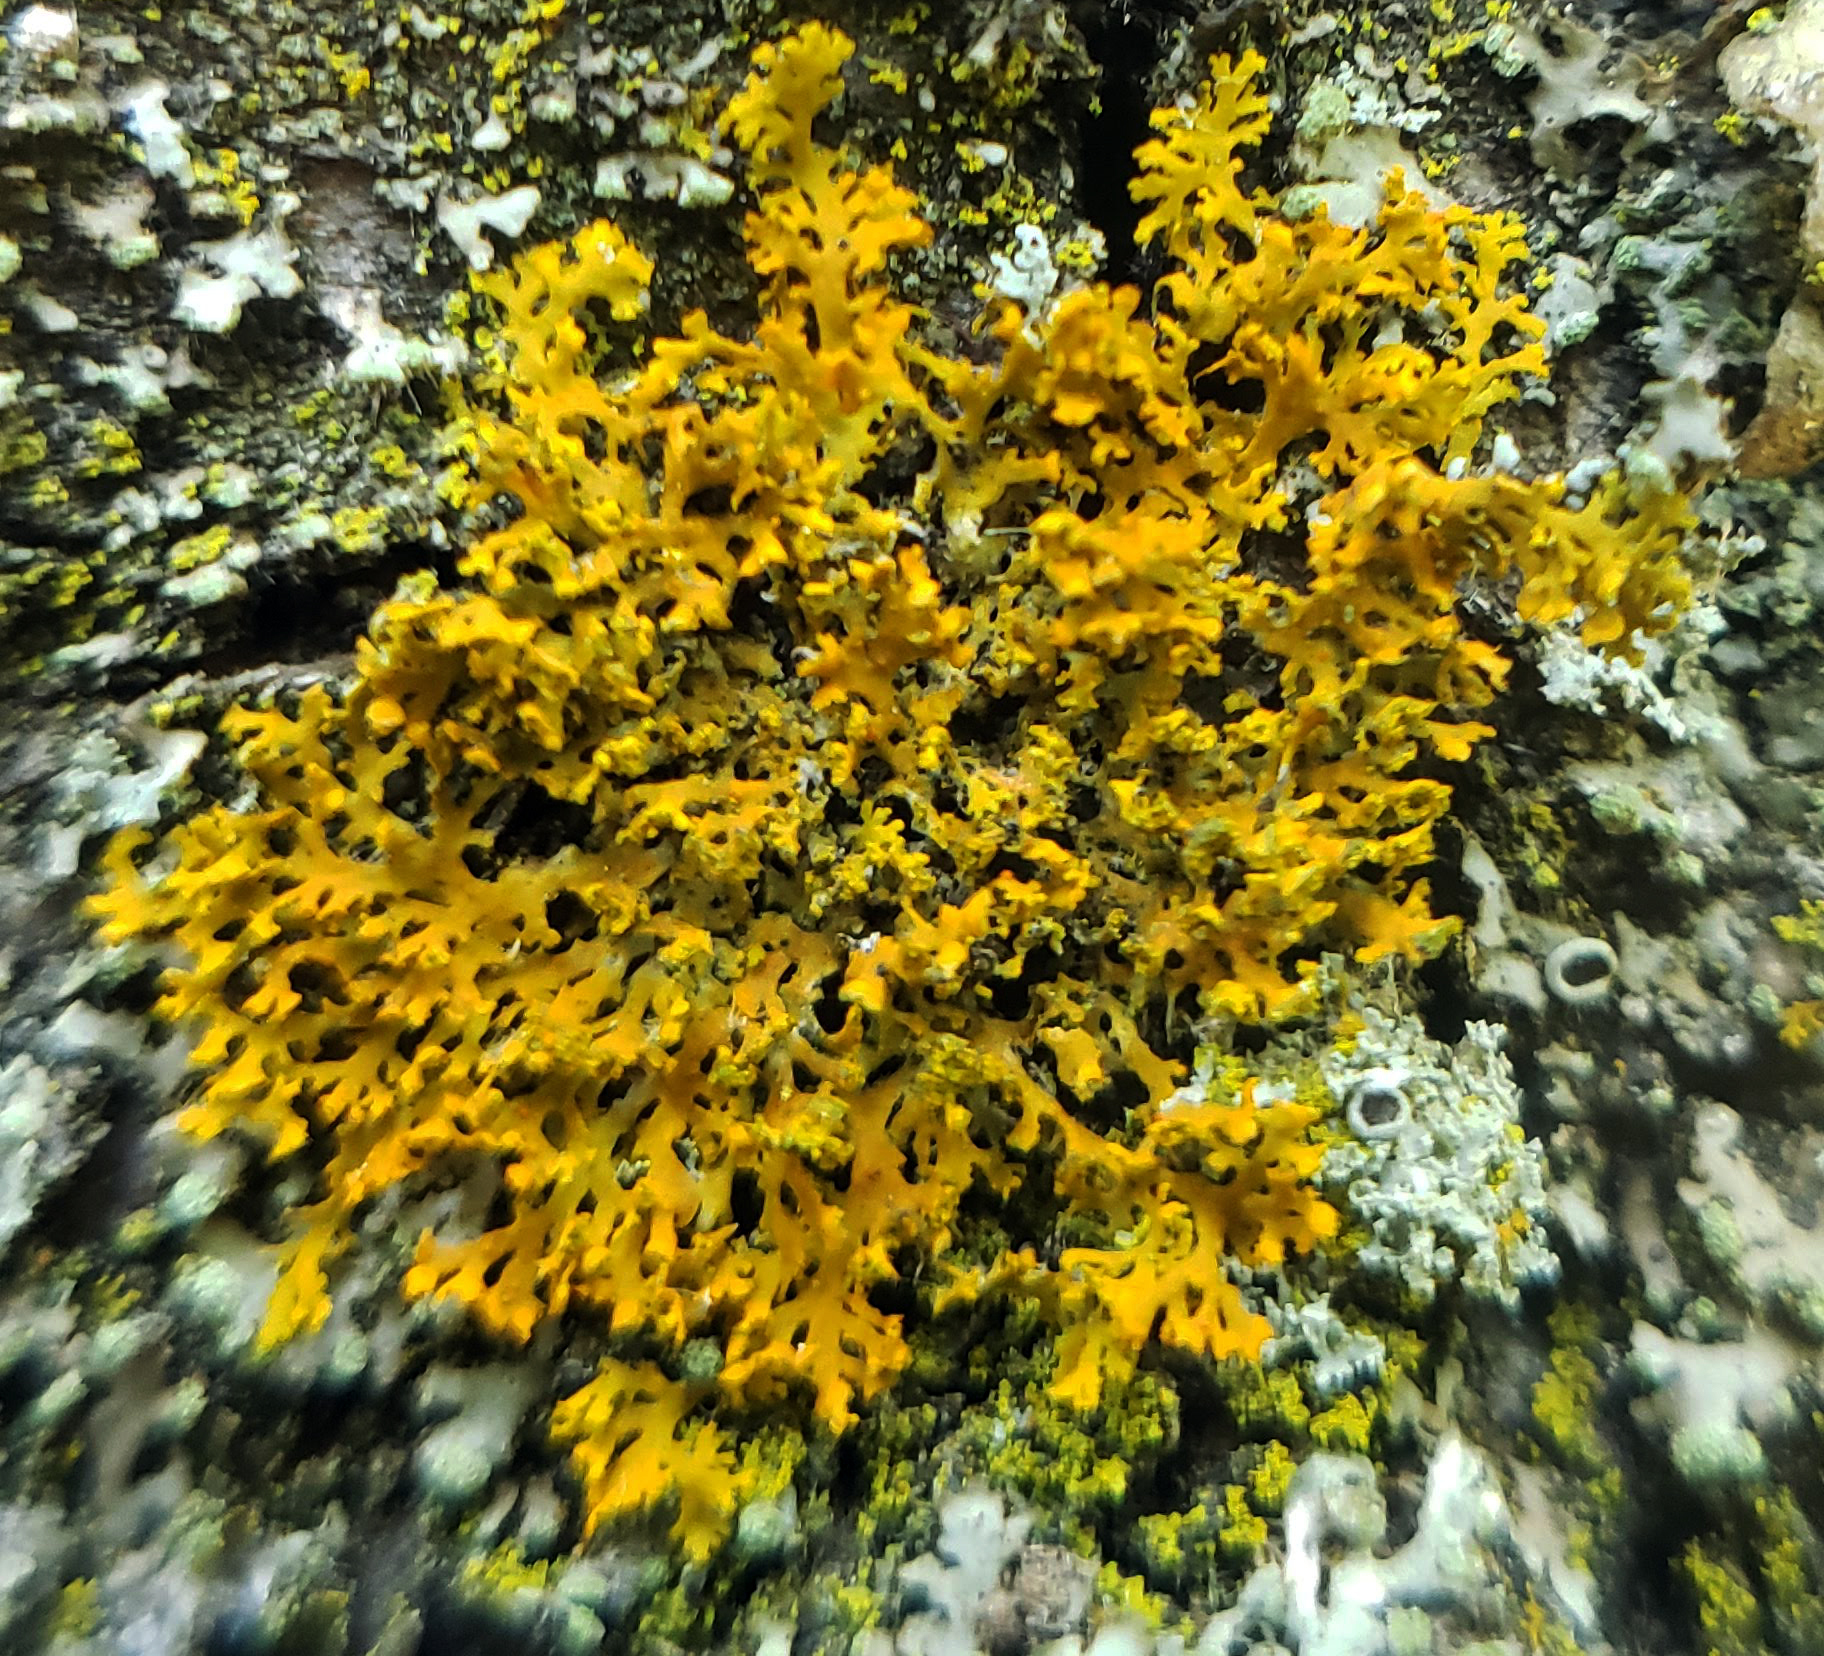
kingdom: Fungi
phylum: Ascomycota
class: Lecanoromycetes
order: Teloschistales
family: Teloschistaceae
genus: Gallowayella
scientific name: Gallowayella weberi
